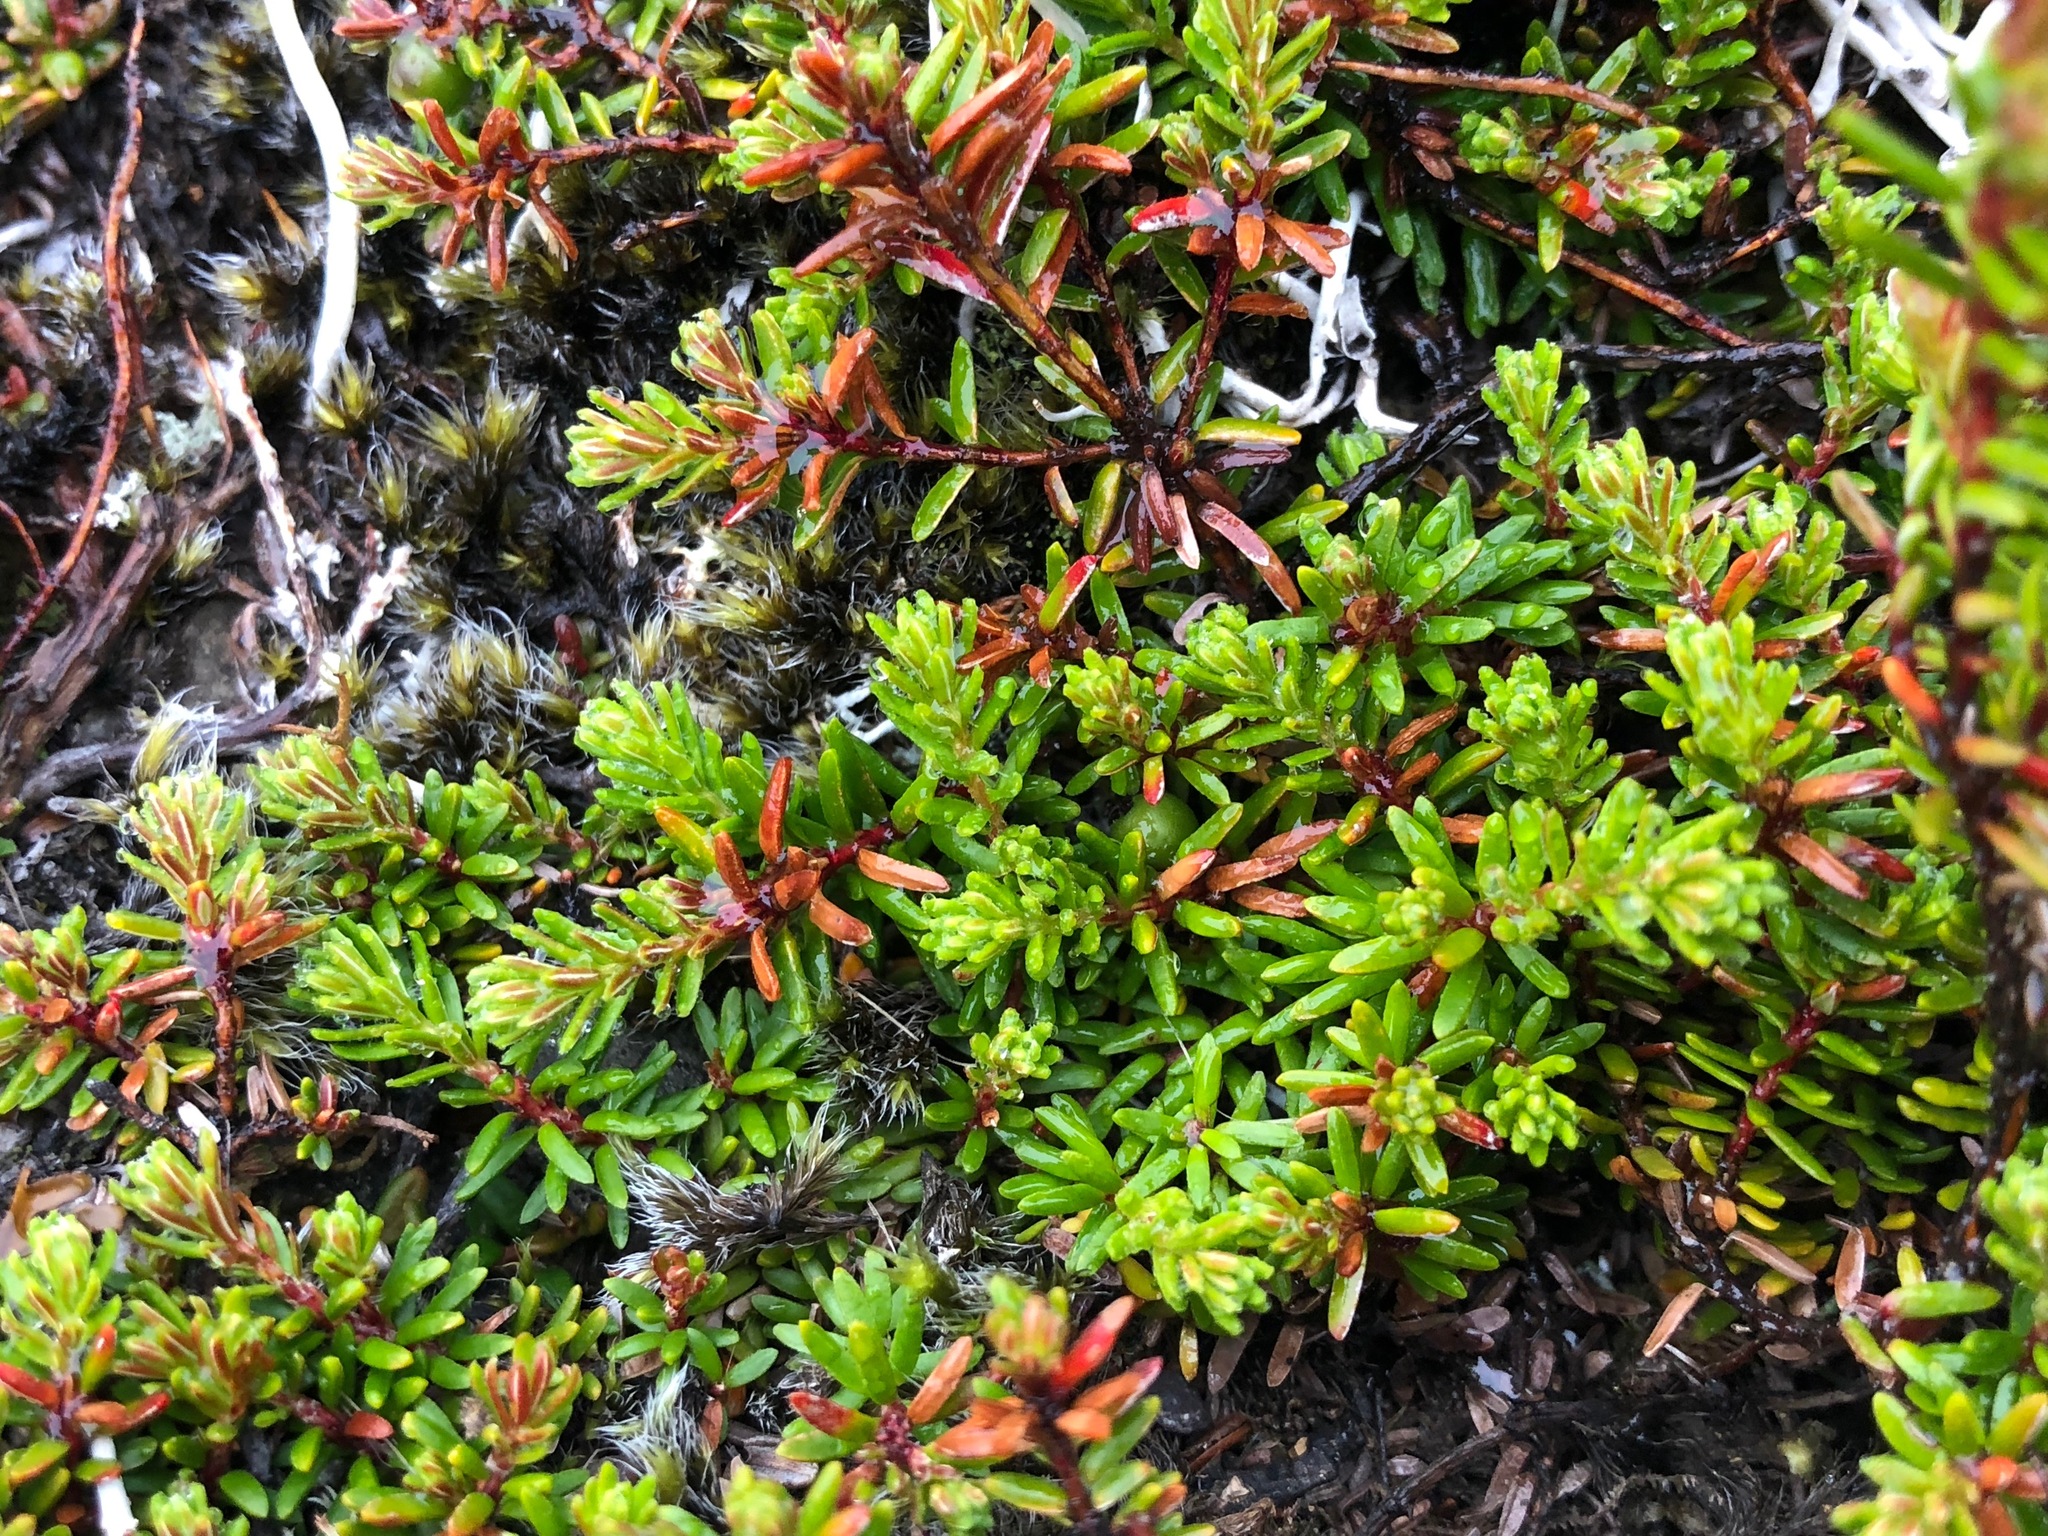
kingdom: Plantae
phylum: Tracheophyta
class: Magnoliopsida
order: Ericales
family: Ericaceae
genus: Empetrum
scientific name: Empetrum nigrum
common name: Black crowberry
